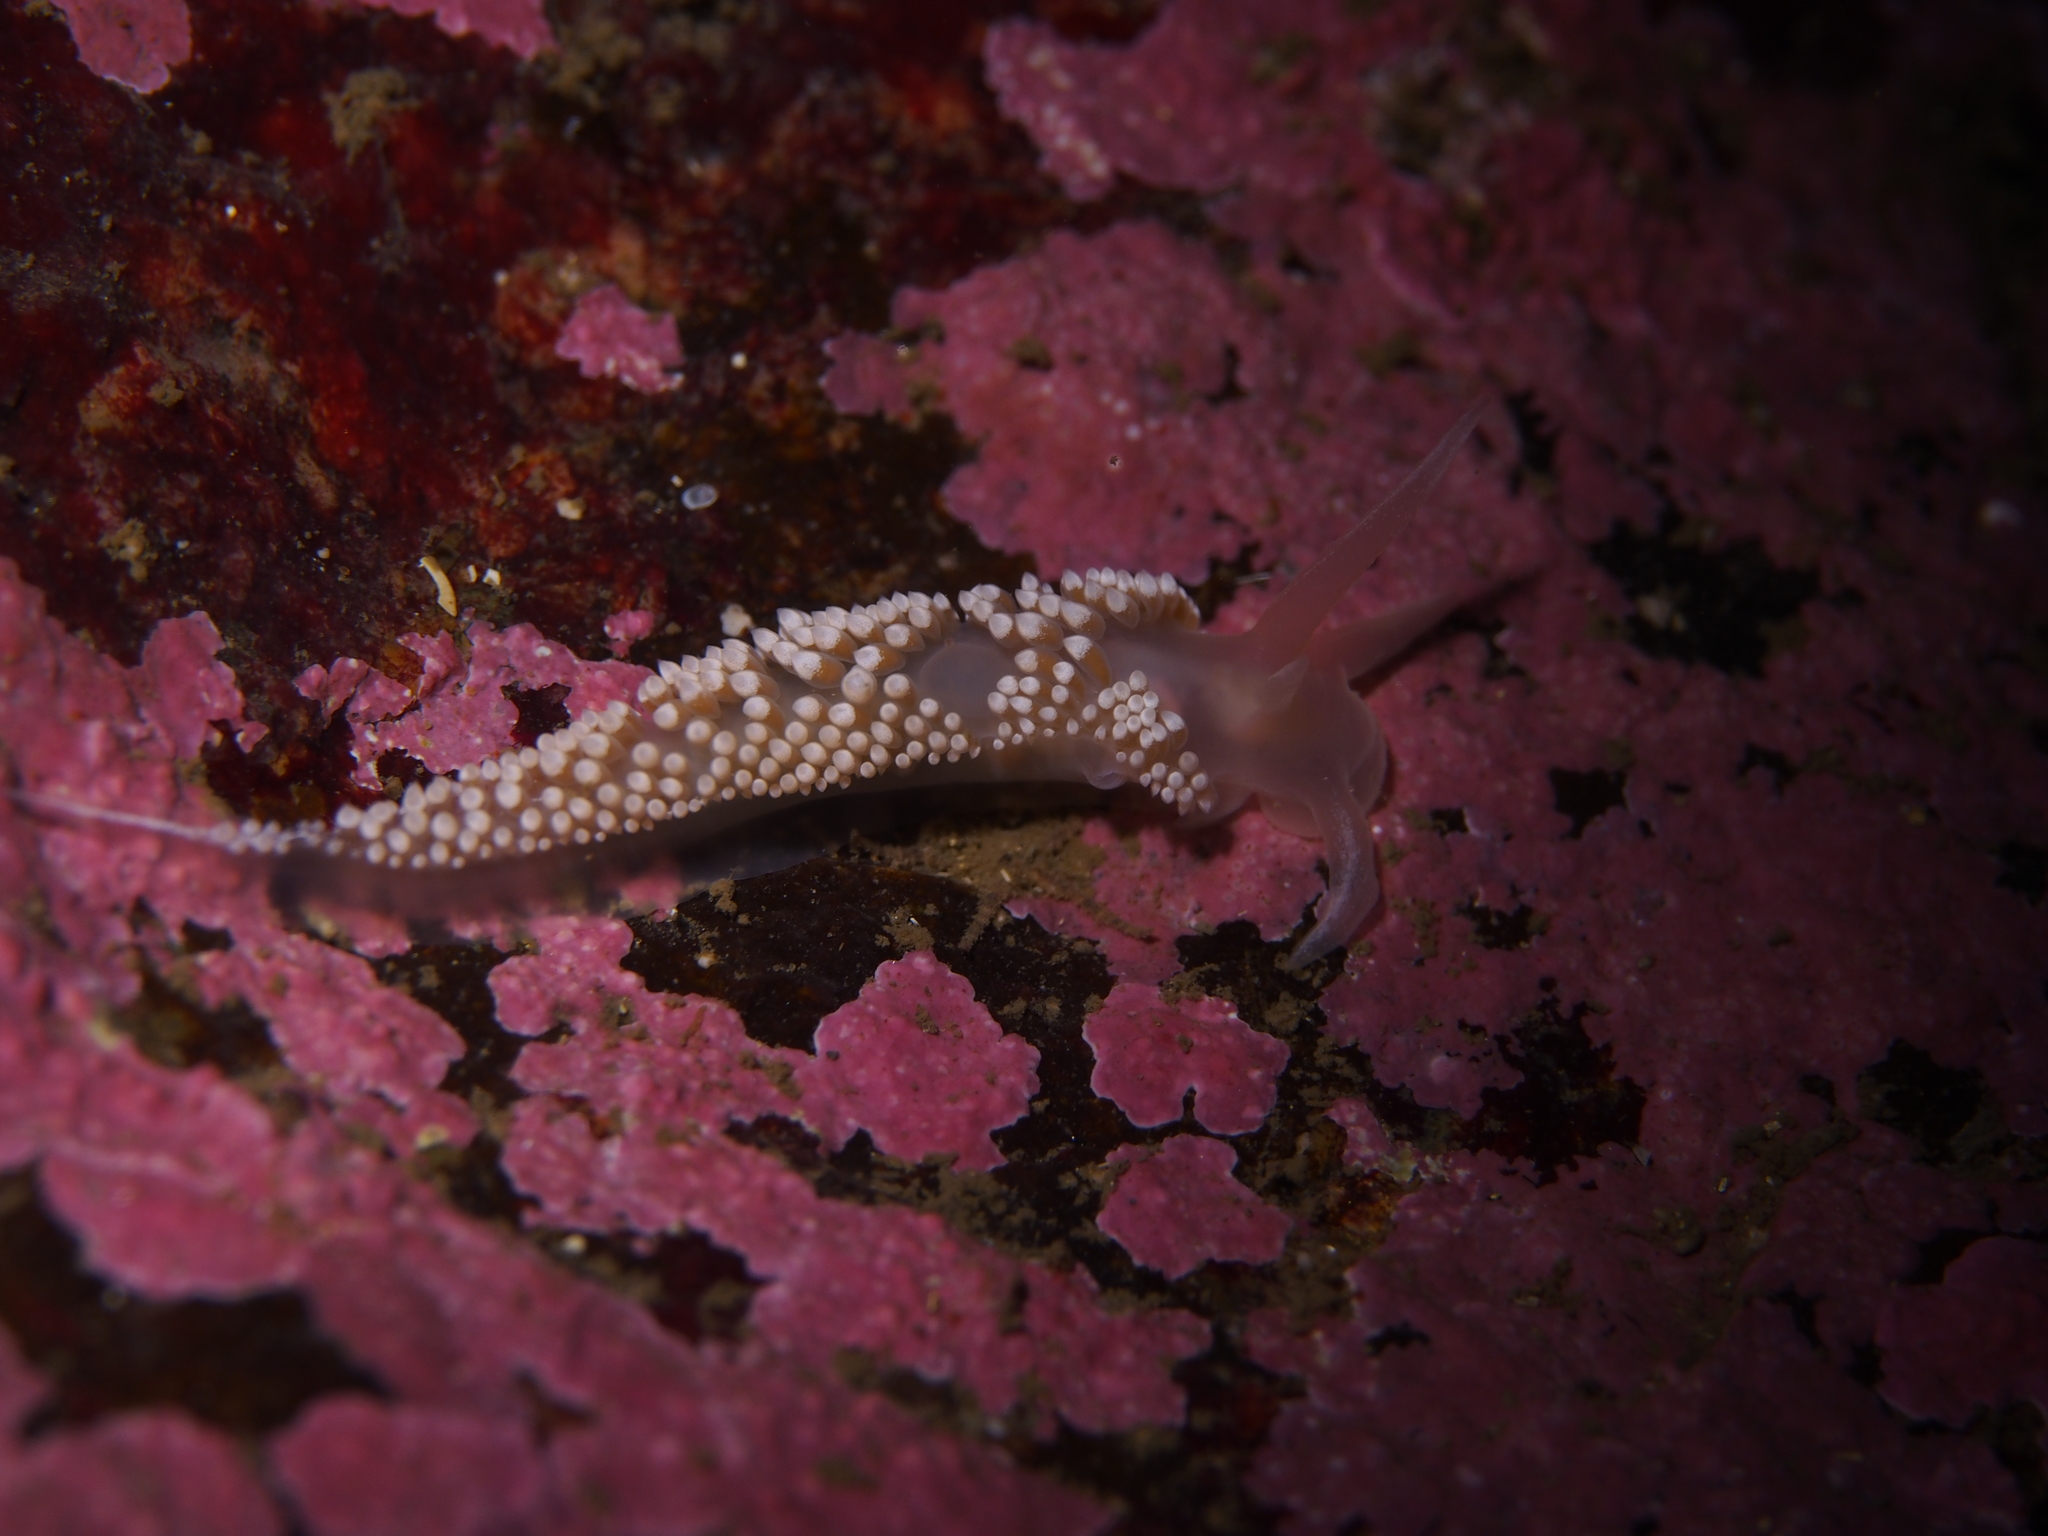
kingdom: Animalia
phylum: Mollusca
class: Gastropoda
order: Nudibranchia
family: Coryphellidae
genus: Coryphella
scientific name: Coryphella verrucosa
